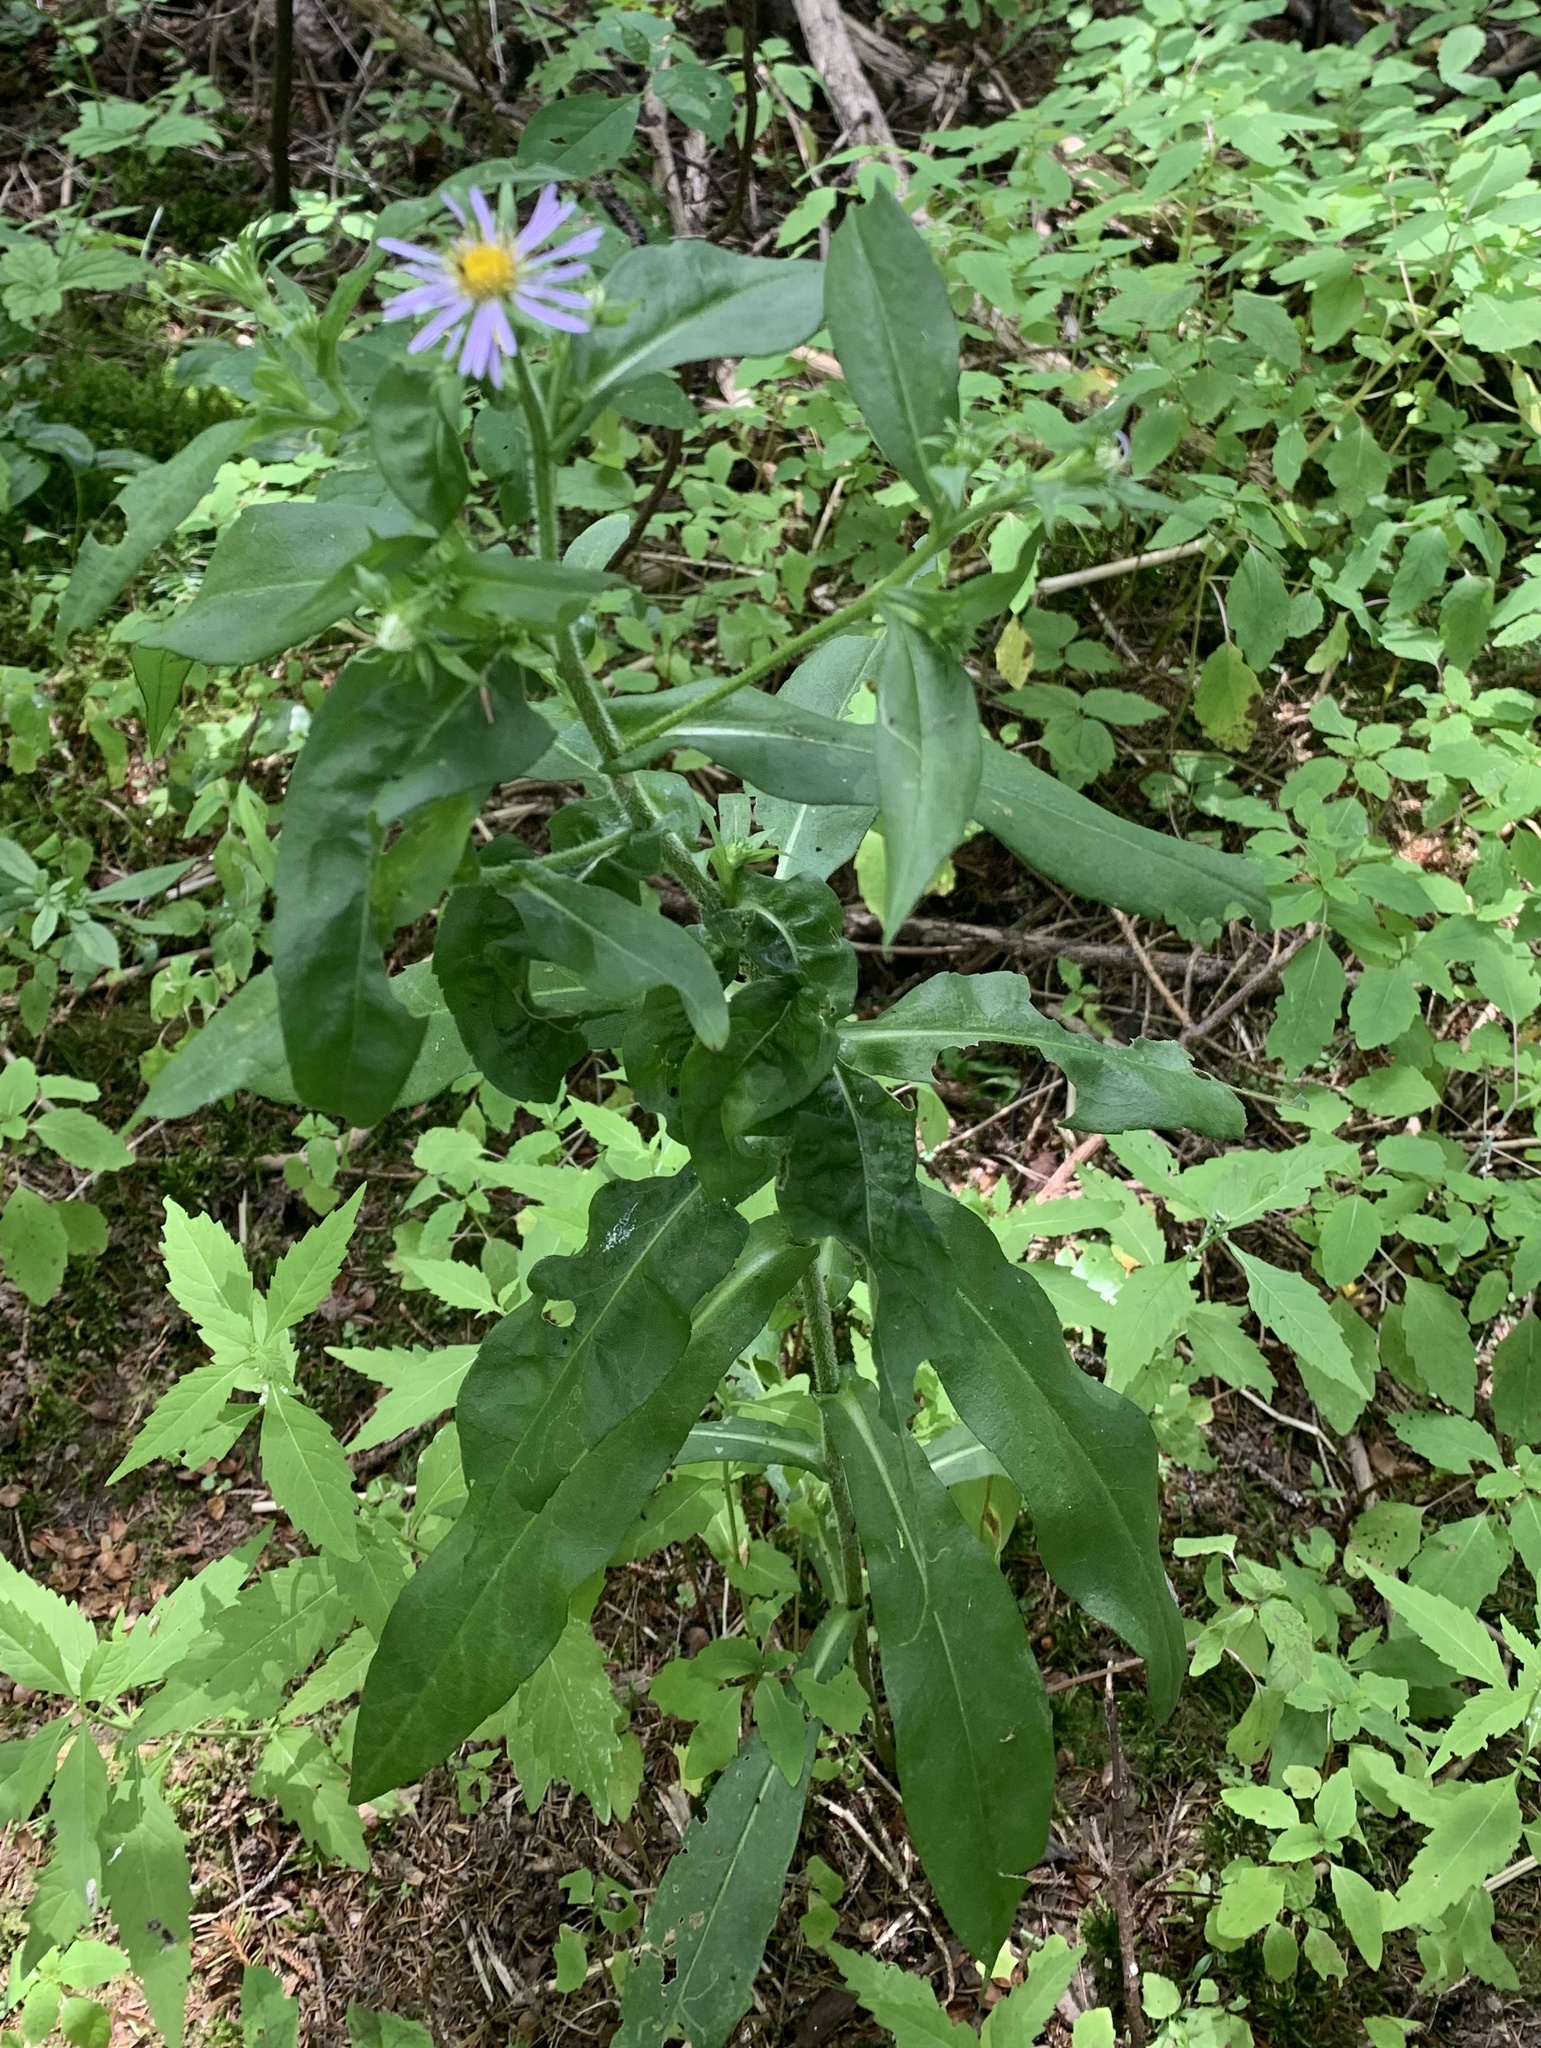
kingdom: Plantae
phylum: Tracheophyta
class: Magnoliopsida
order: Asterales
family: Asteraceae
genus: Symphyotrichum
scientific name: Symphyotrichum puniceum
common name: Bog aster
